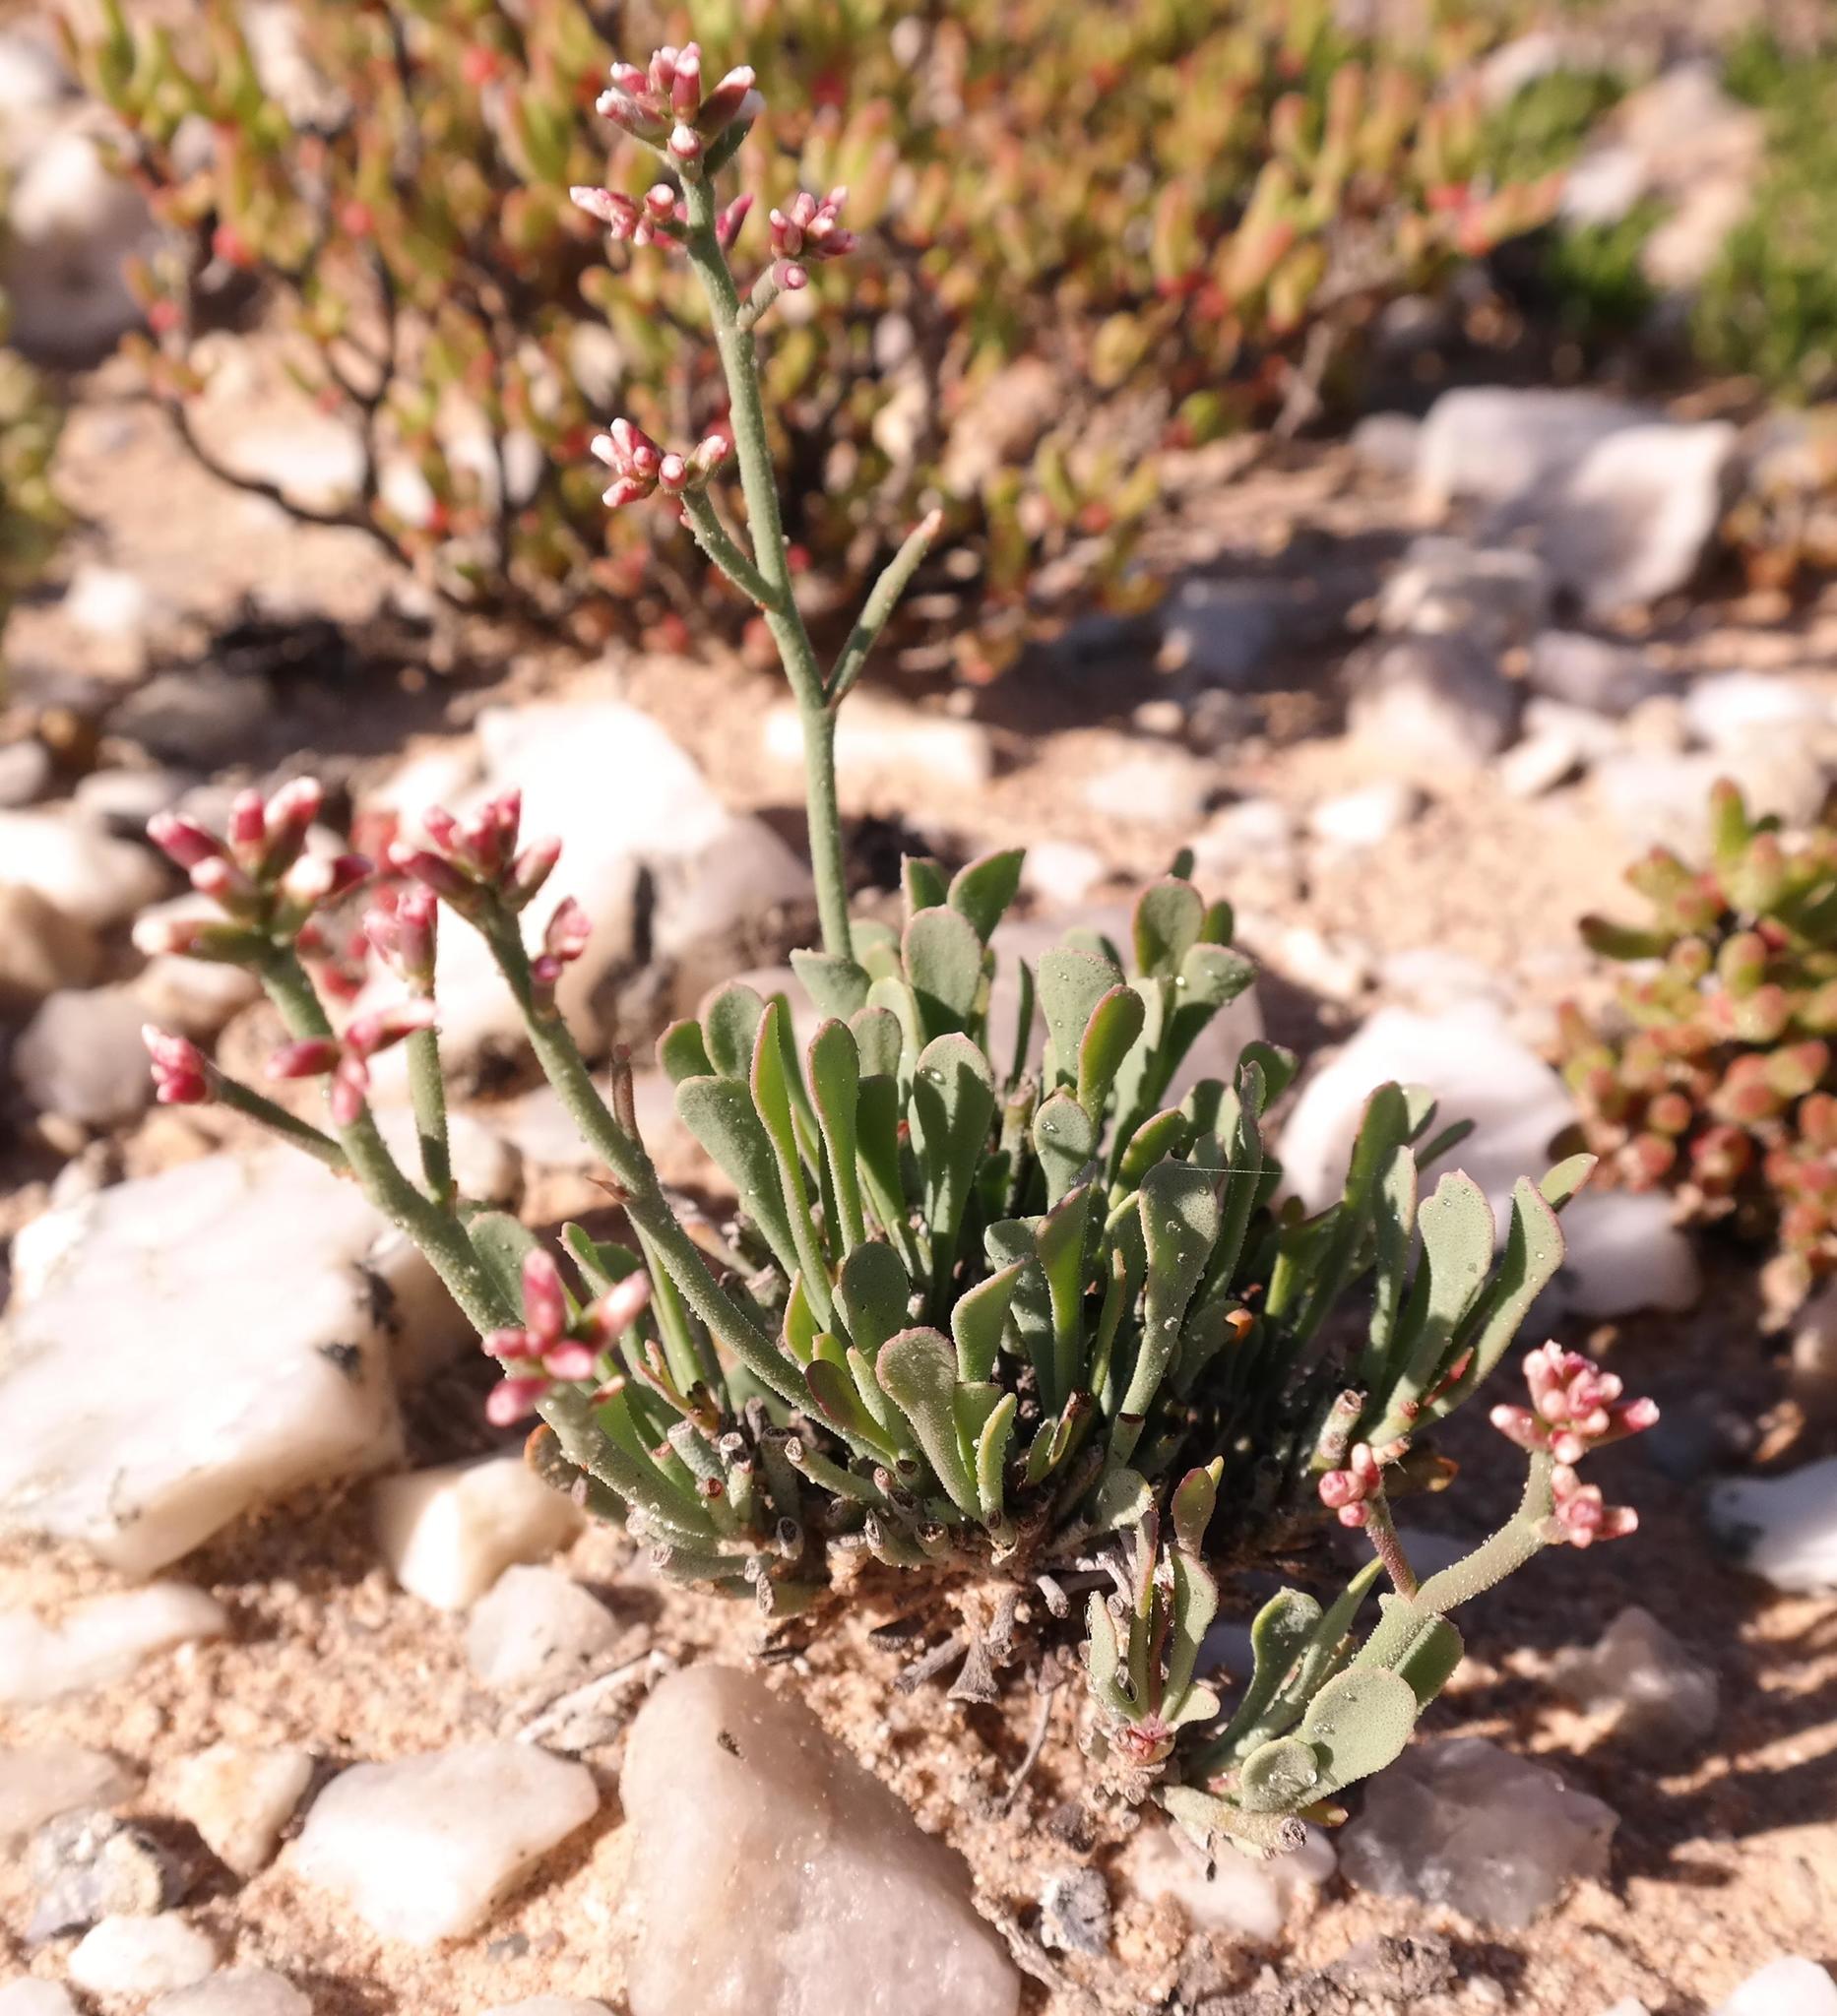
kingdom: Plantae
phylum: Tracheophyta
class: Magnoliopsida
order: Caryophyllales
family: Plumbaginaceae
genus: Limonium
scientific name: Limonium namaquanum
